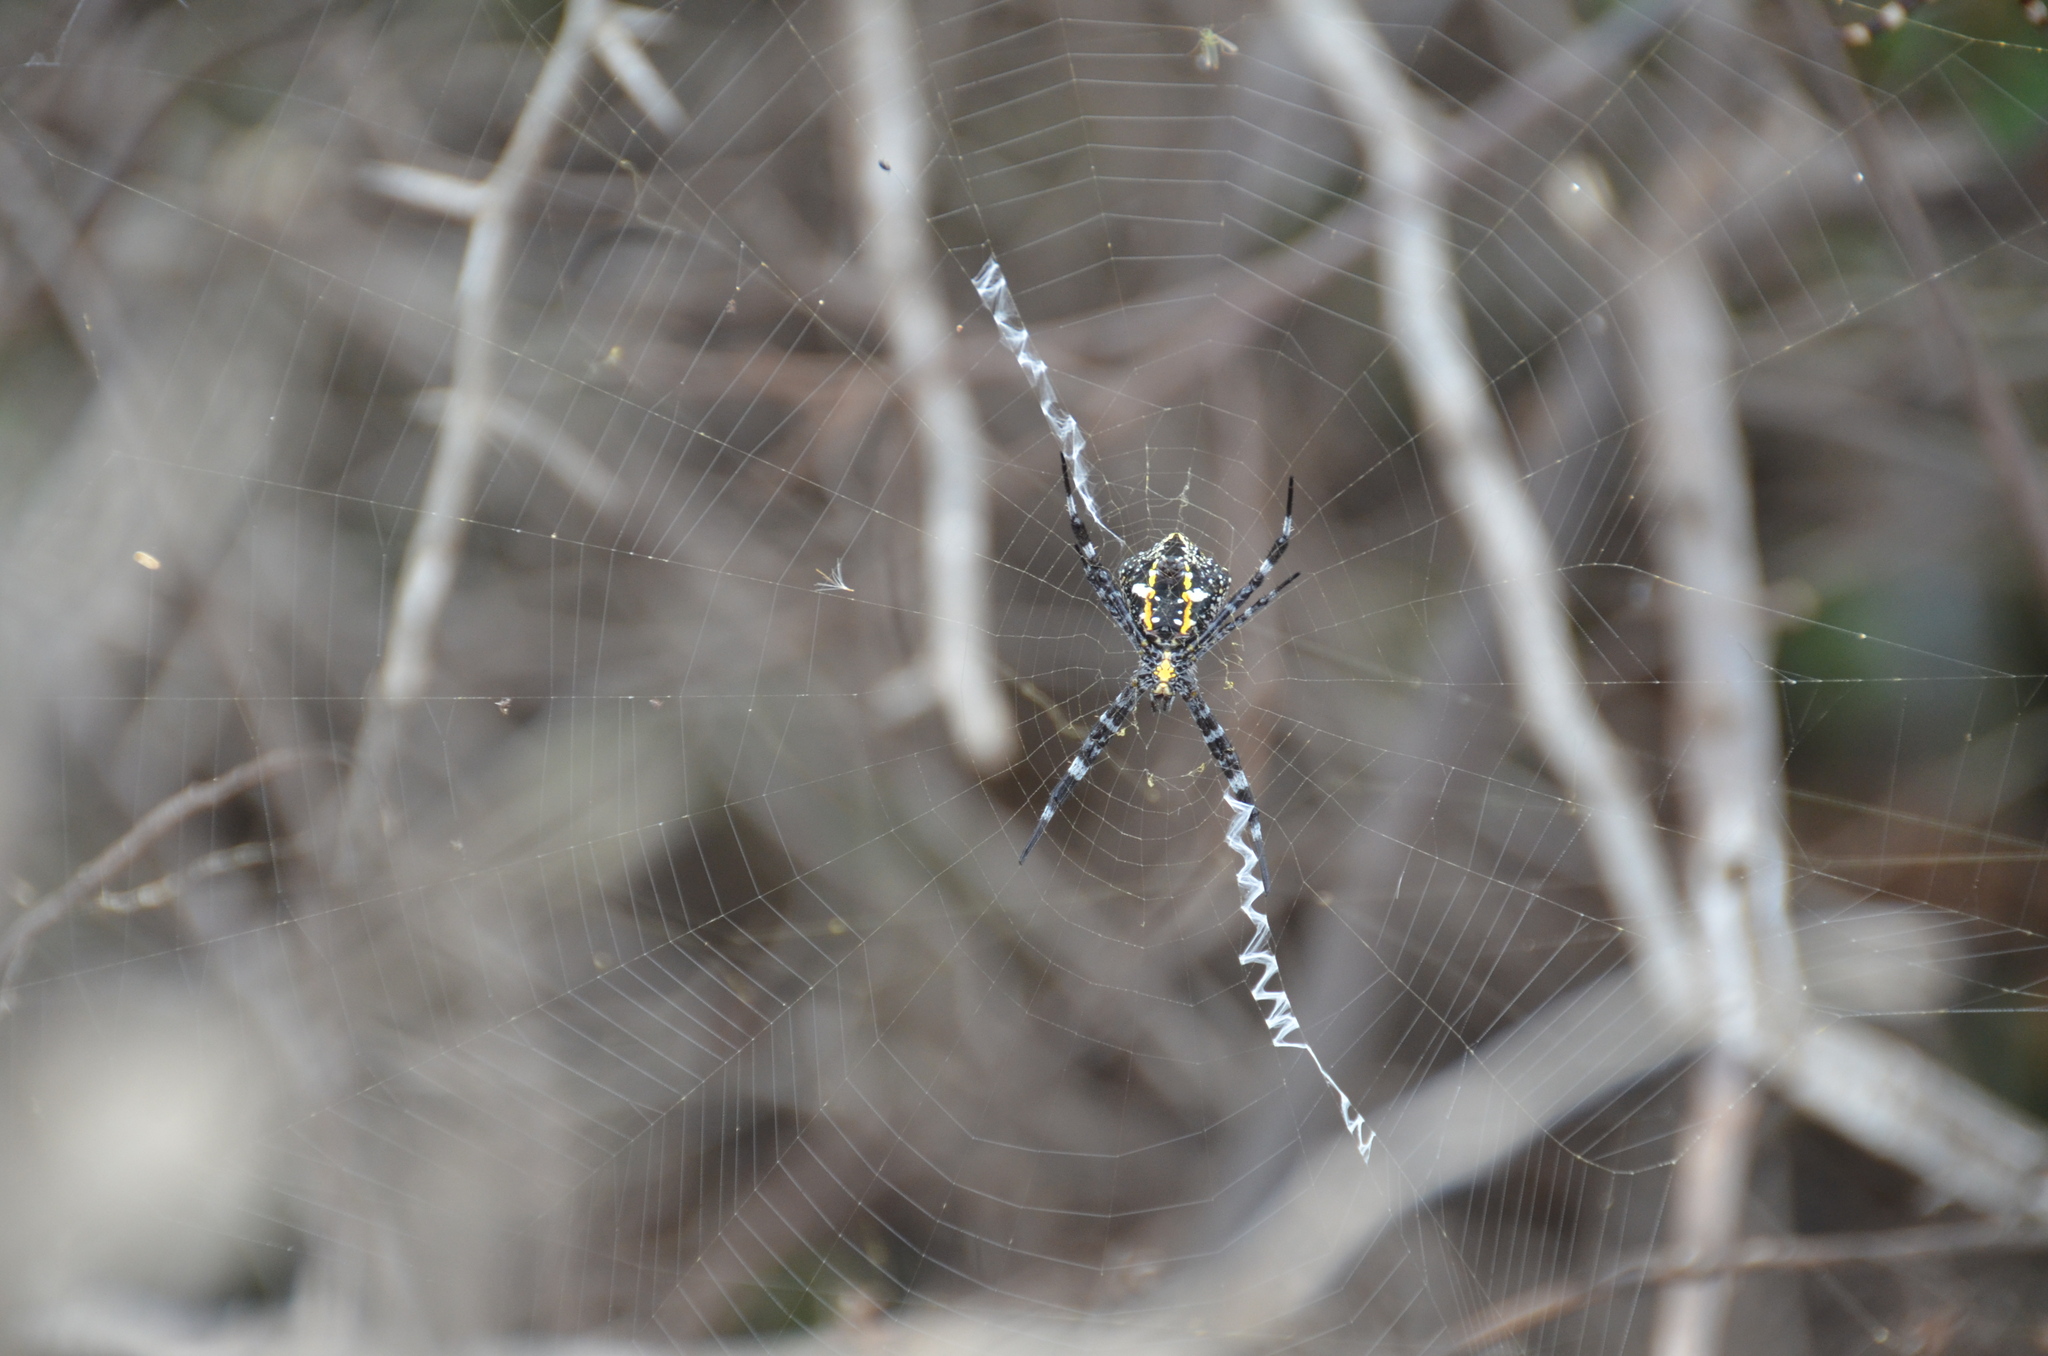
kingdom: Animalia
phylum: Arthropoda
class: Arachnida
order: Araneae
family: Araneidae
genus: Argiope
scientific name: Argiope appensa
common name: Garden spider
